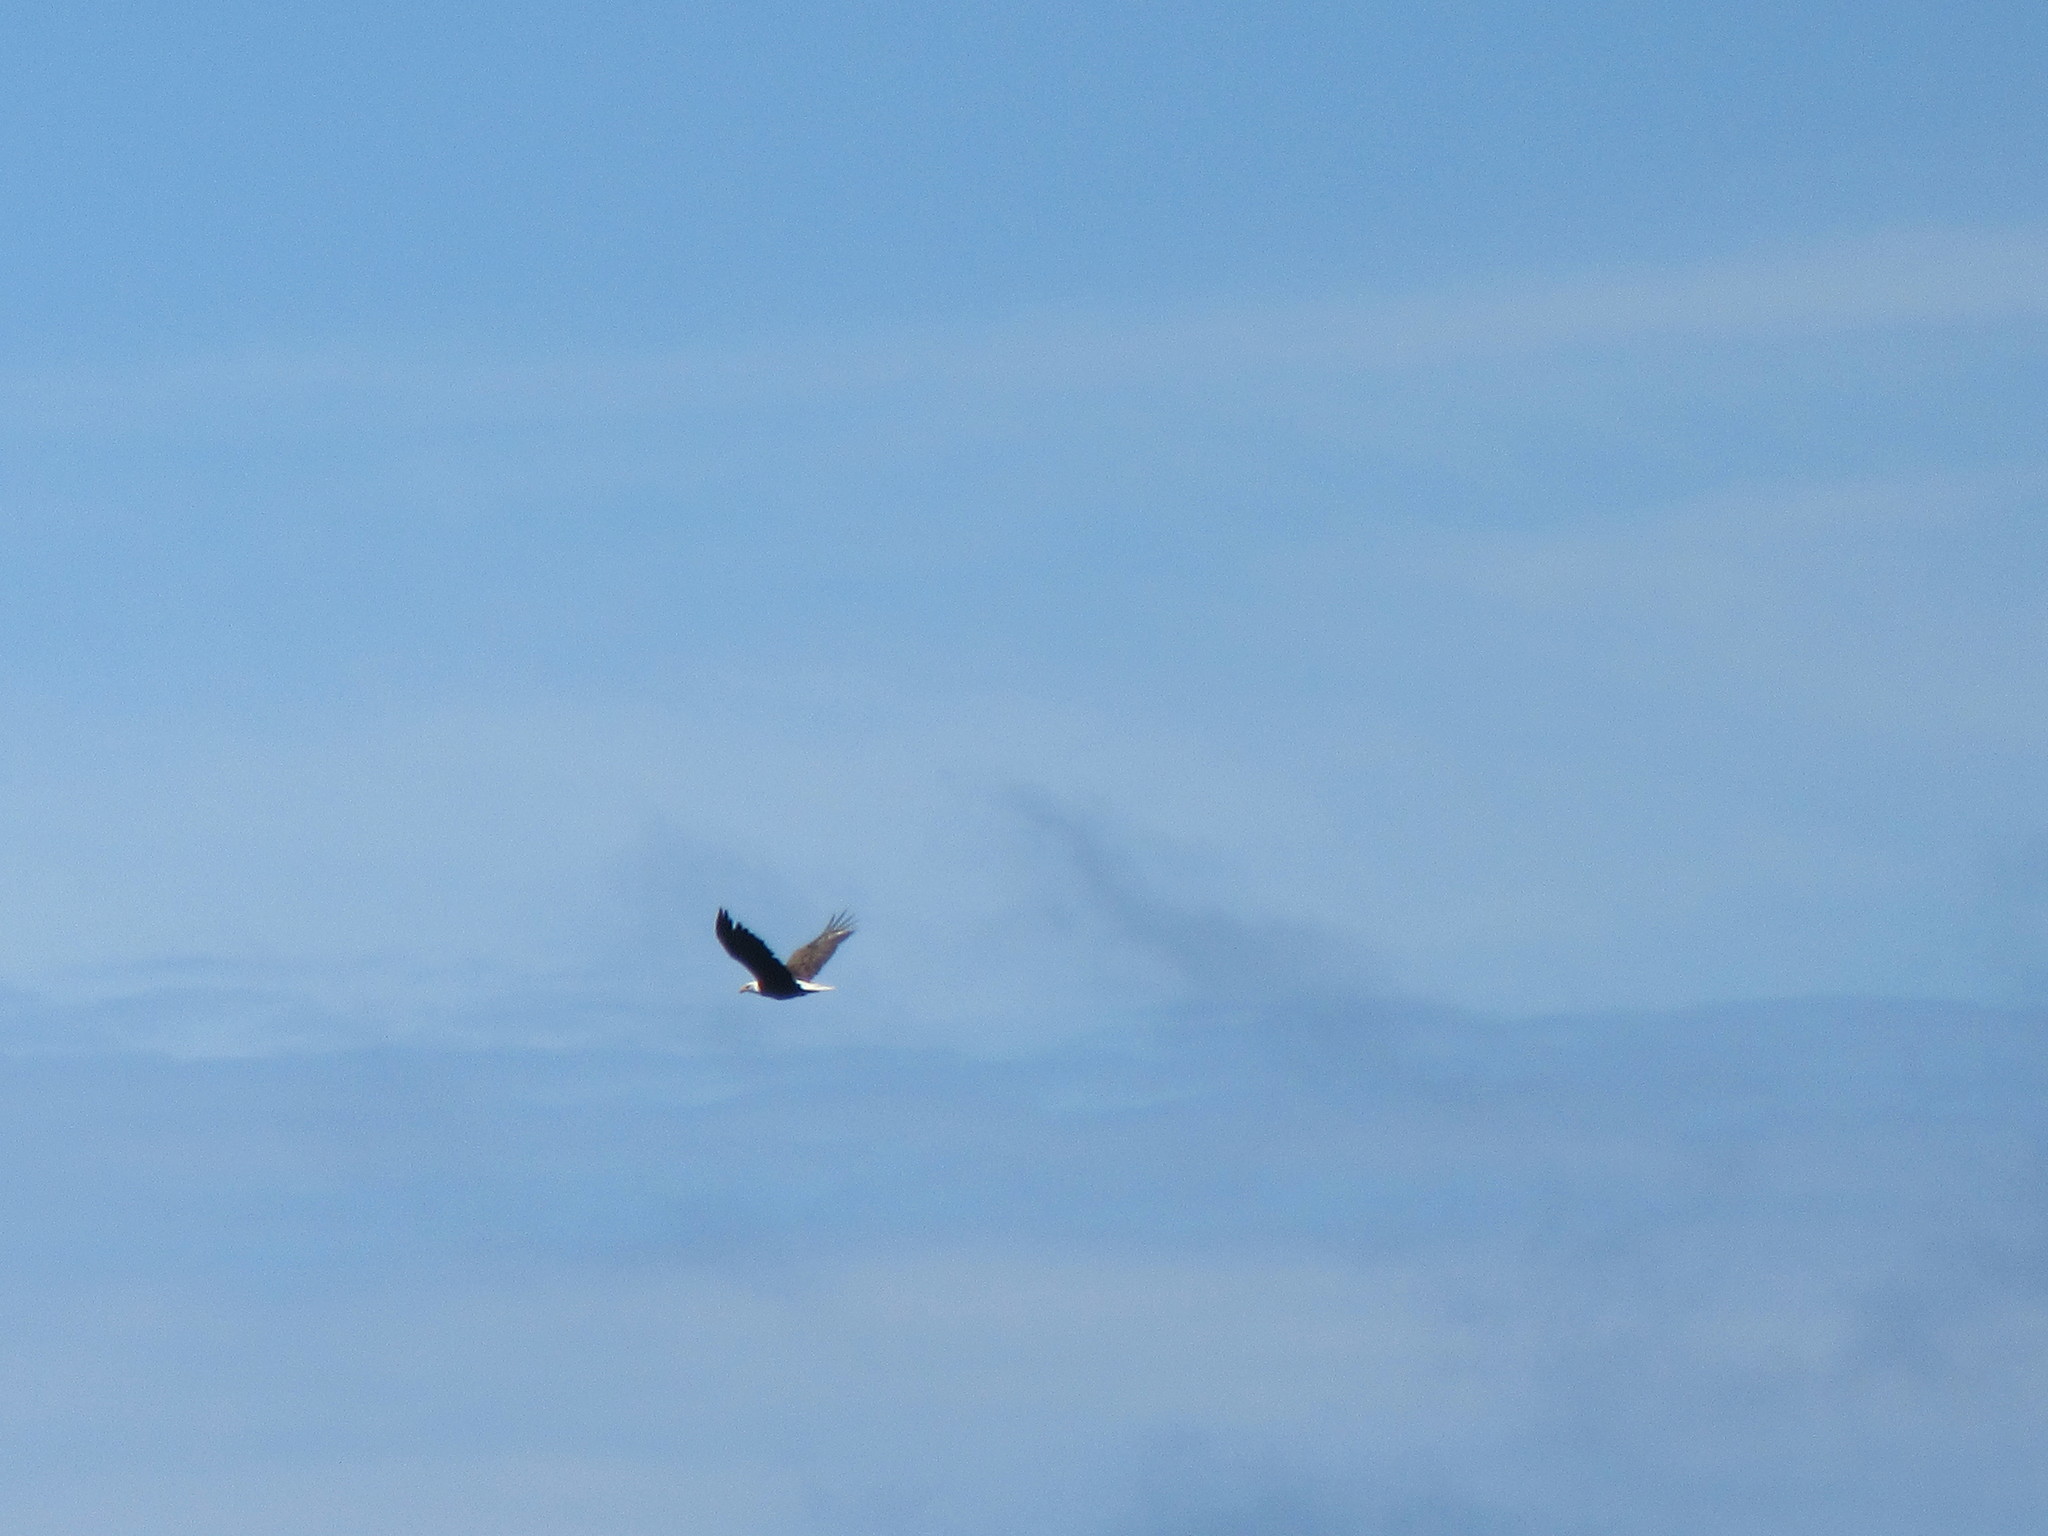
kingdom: Animalia
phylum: Chordata
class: Aves
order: Accipitriformes
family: Accipitridae
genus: Haliaeetus
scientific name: Haliaeetus leucocephalus
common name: Bald eagle
